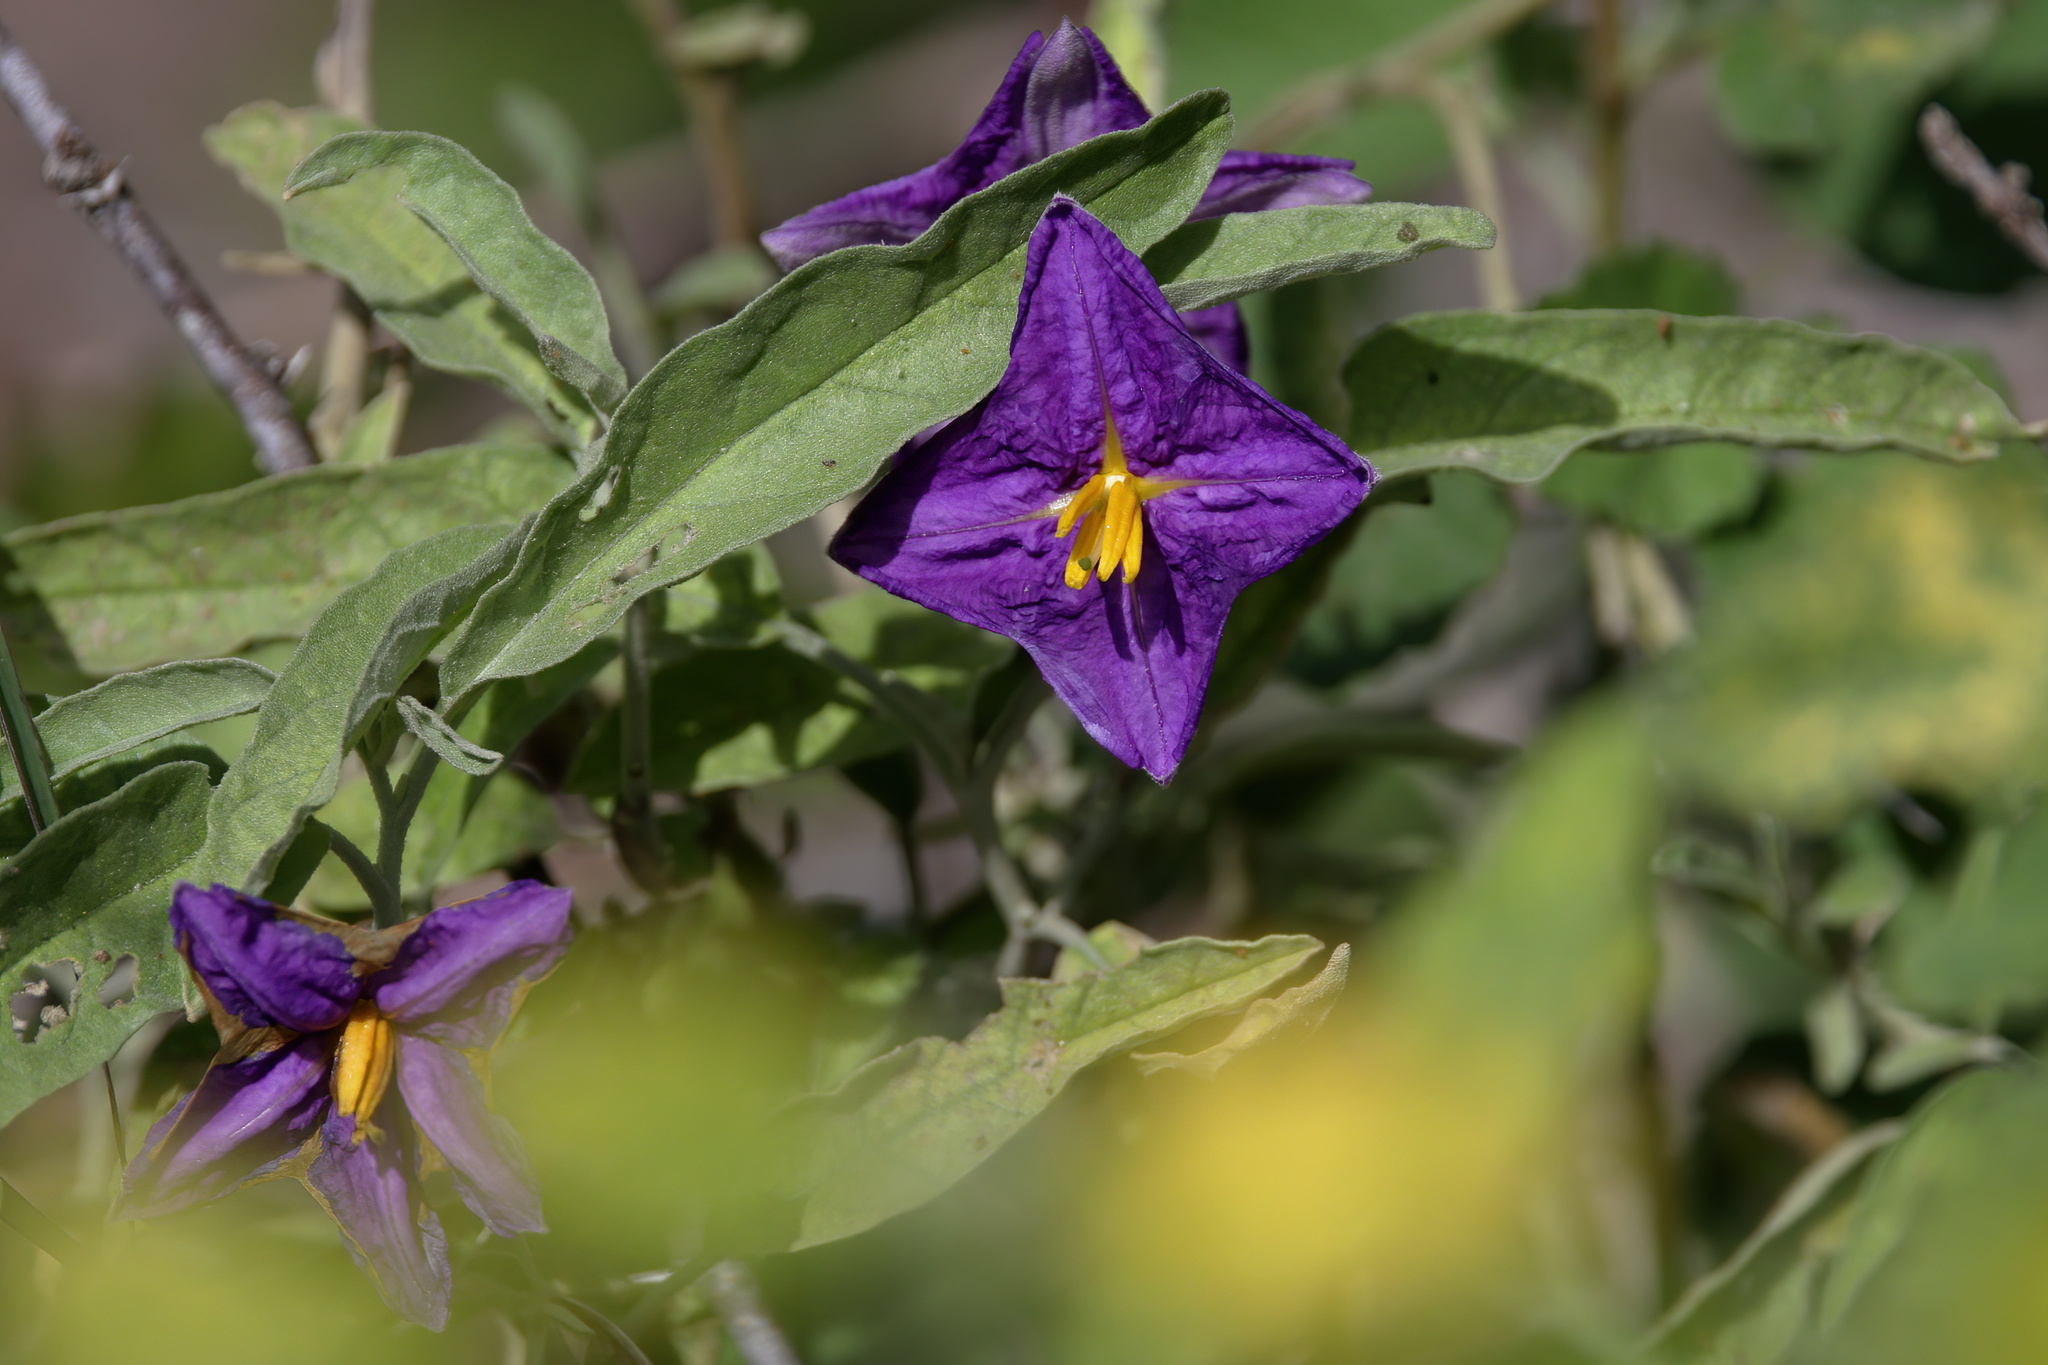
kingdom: Plantae
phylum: Tracheophyta
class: Magnoliopsida
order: Solanales
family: Solanaceae
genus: Solanum
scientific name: Solanum elaeagnifolium
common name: Silverleaf nightshade
